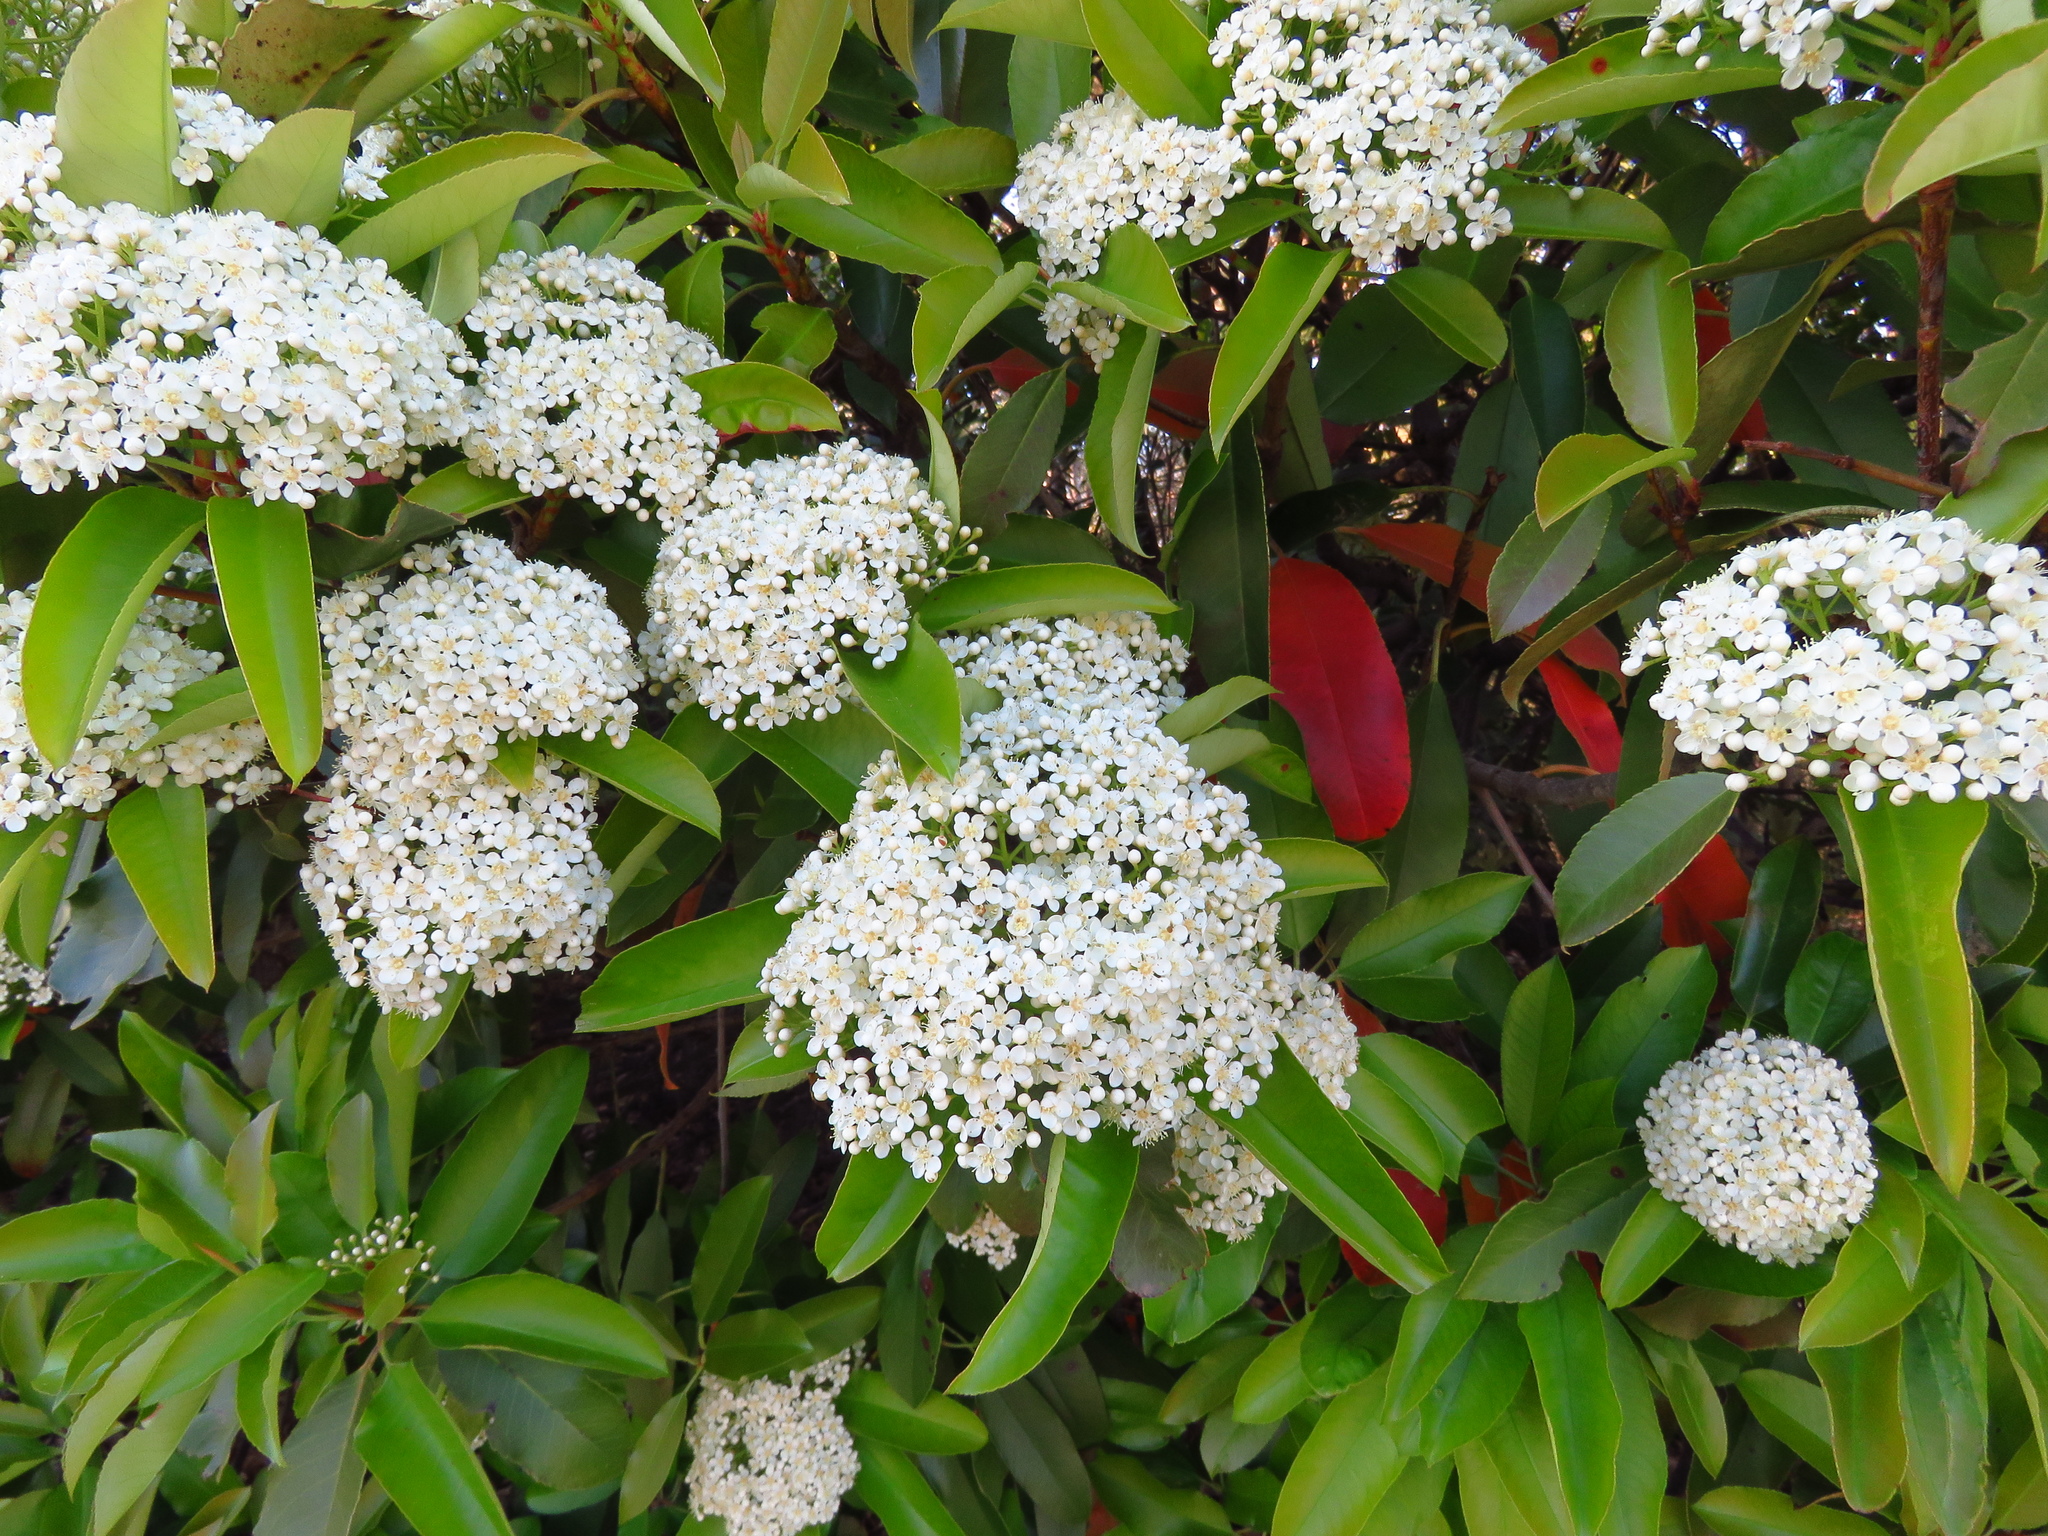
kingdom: Plantae
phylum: Tracheophyta
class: Magnoliopsida
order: Rosales
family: Rosaceae
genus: Photinia
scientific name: Photinia fraseri
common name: Fraser's photinia
